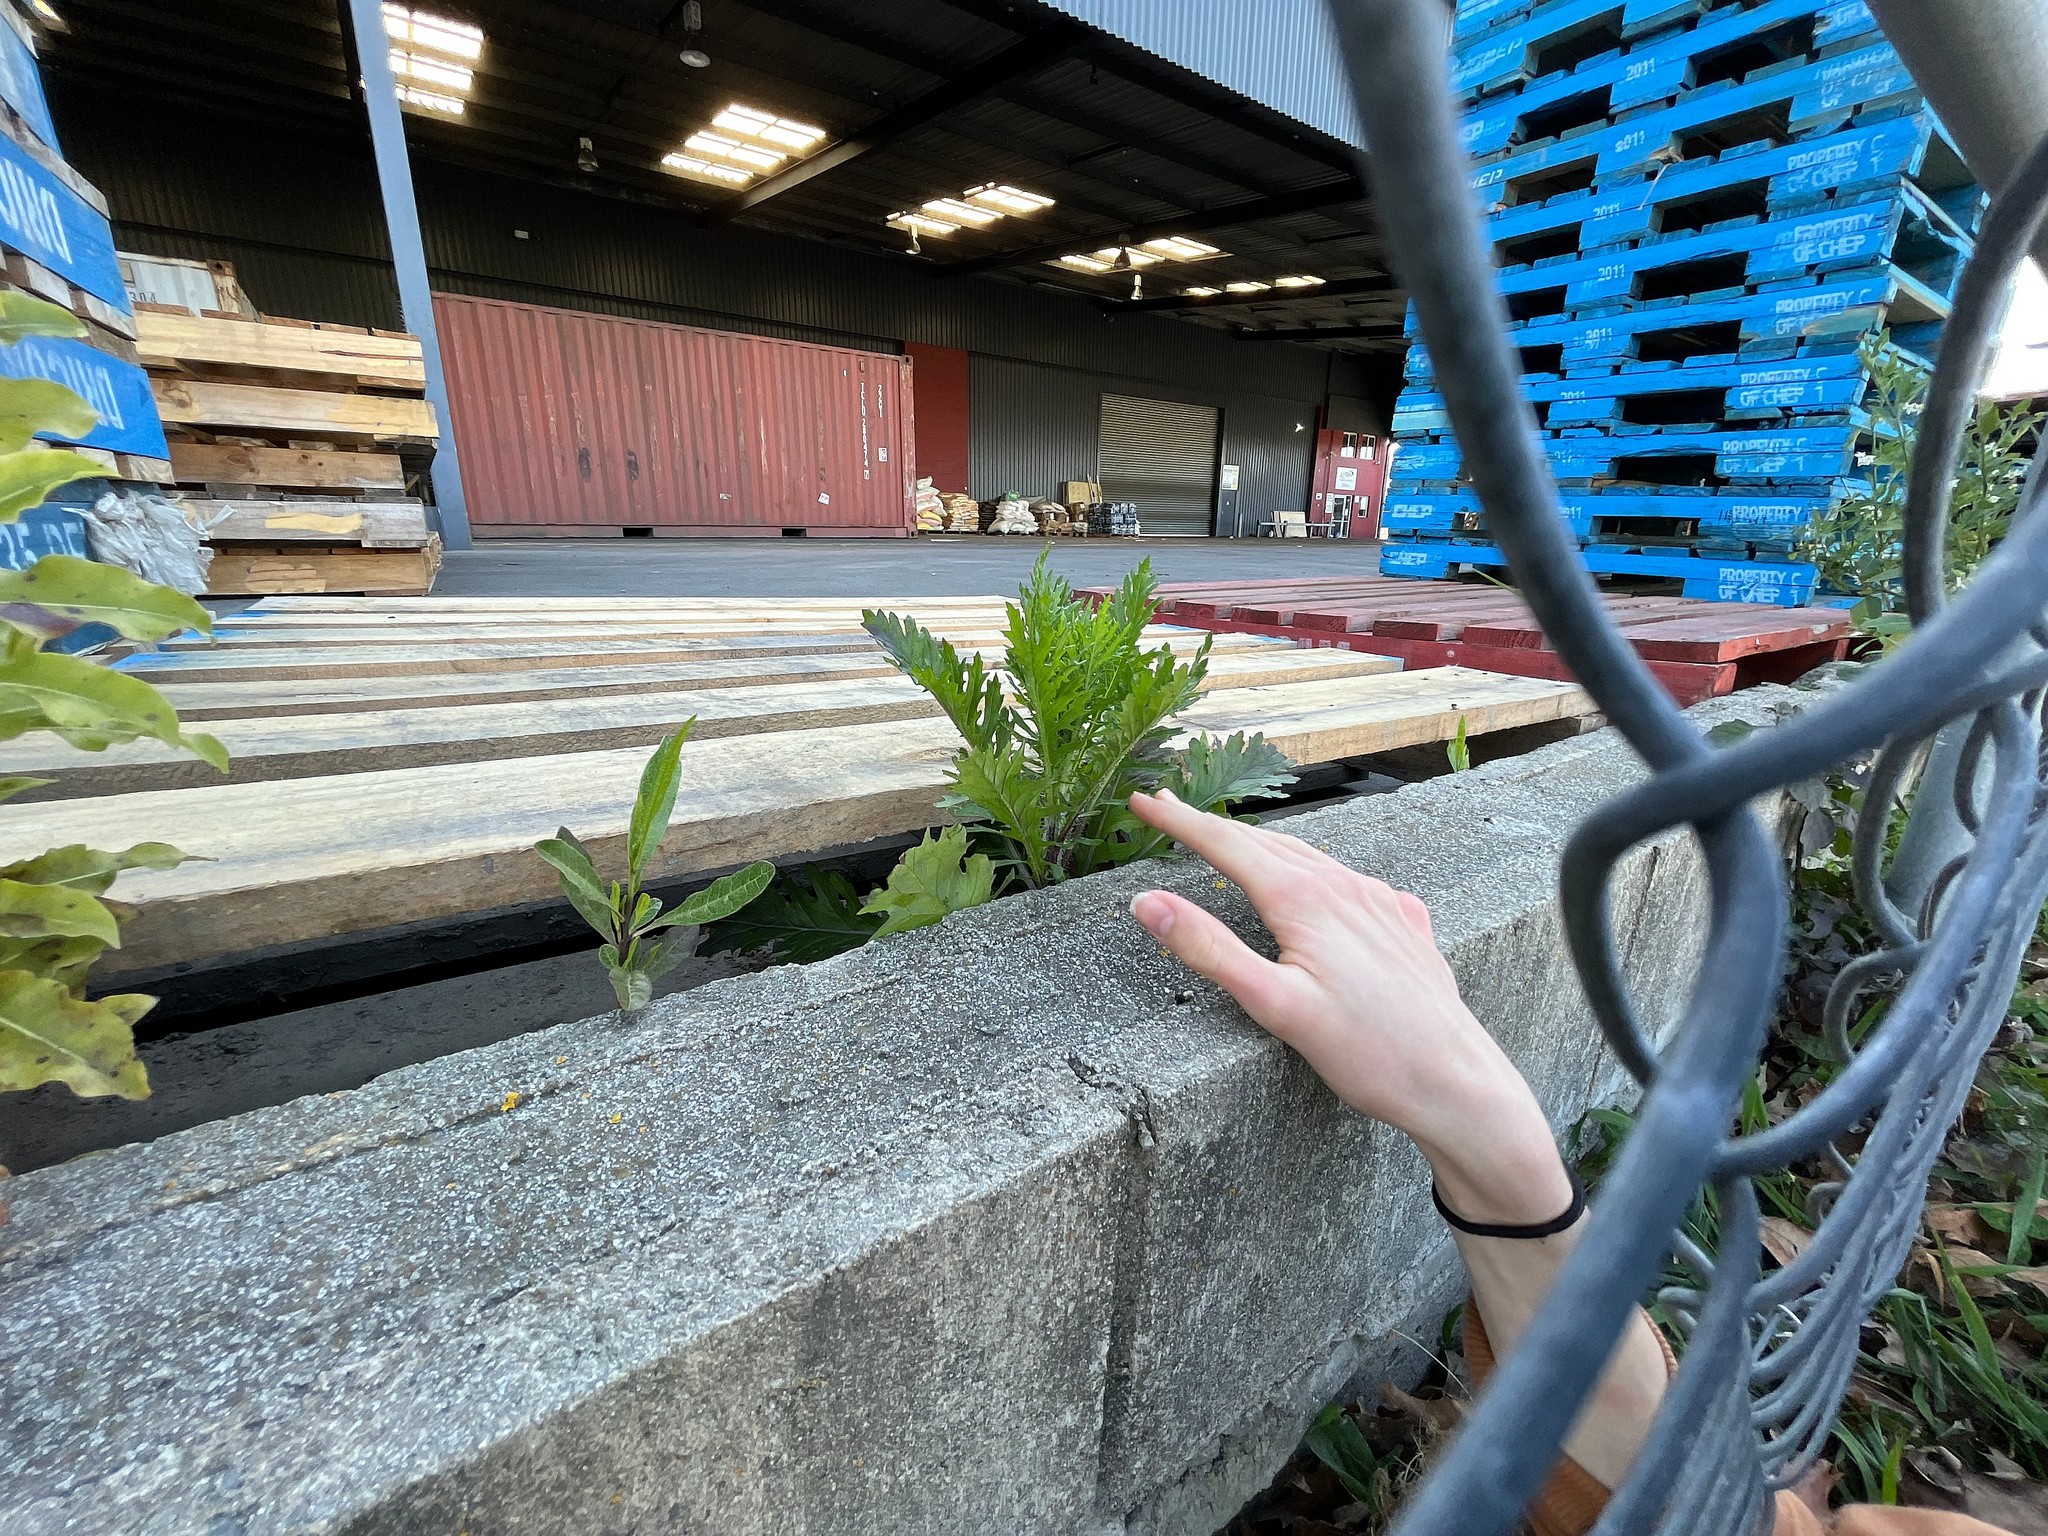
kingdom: Plantae
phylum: Tracheophyta
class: Magnoliopsida
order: Asterales
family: Asteraceae
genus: Senecio
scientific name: Senecio esleri
